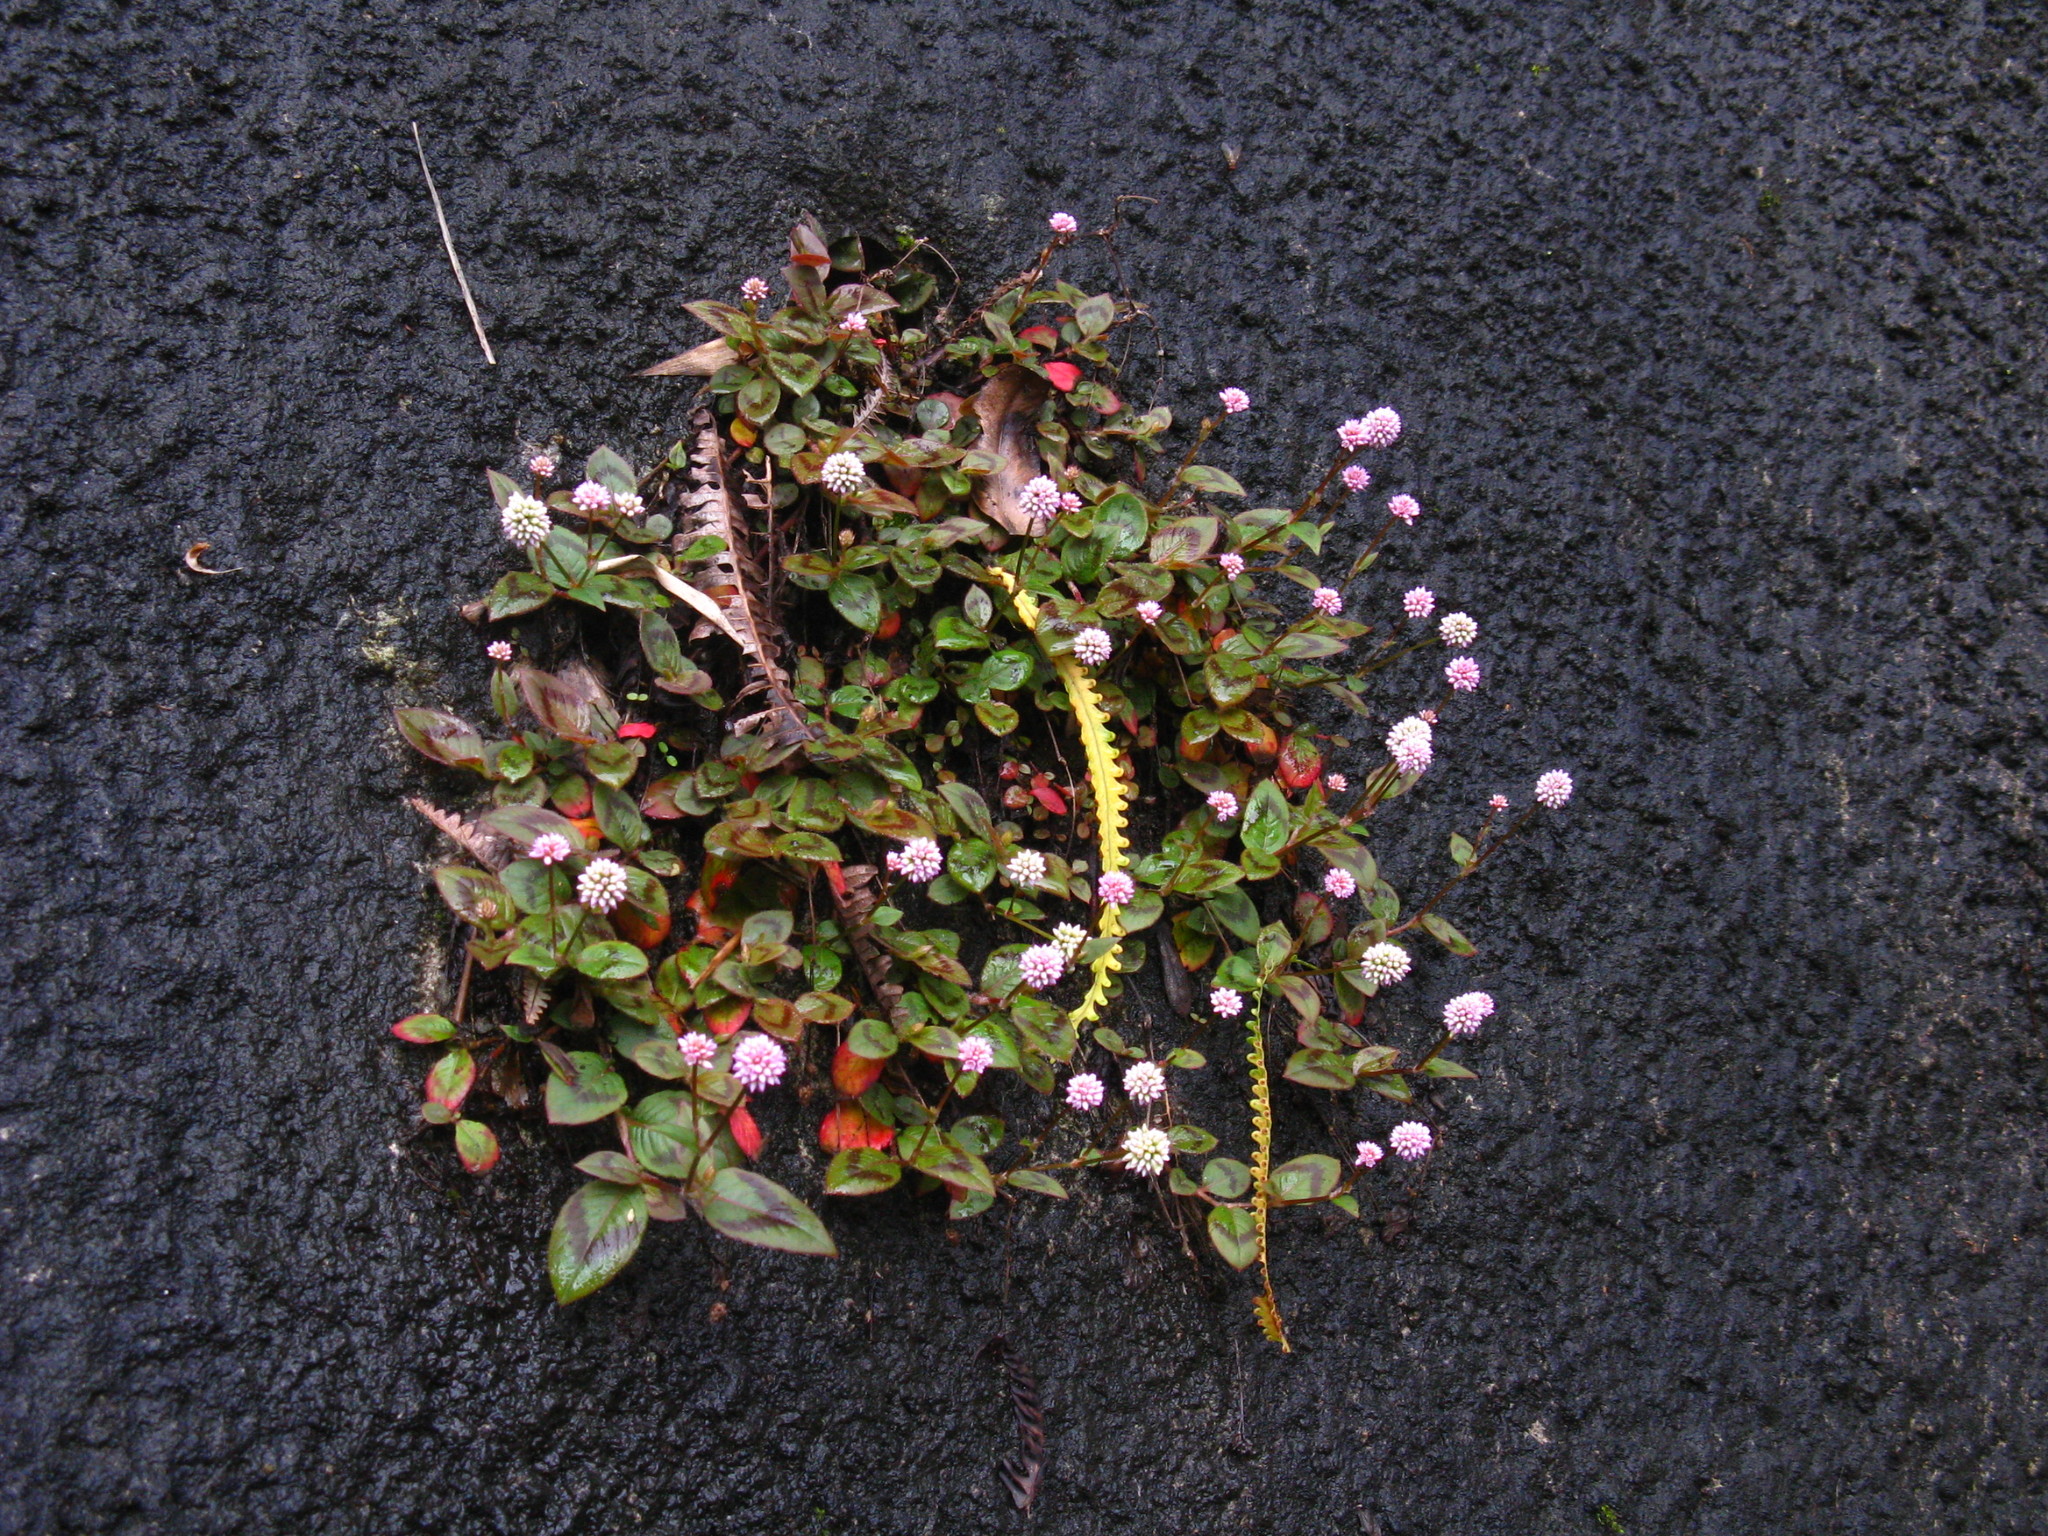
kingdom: Plantae
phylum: Tracheophyta
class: Magnoliopsida
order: Caryophyllales
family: Polygonaceae
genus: Persicaria
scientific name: Persicaria capitata
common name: Pinkhead smartweed
